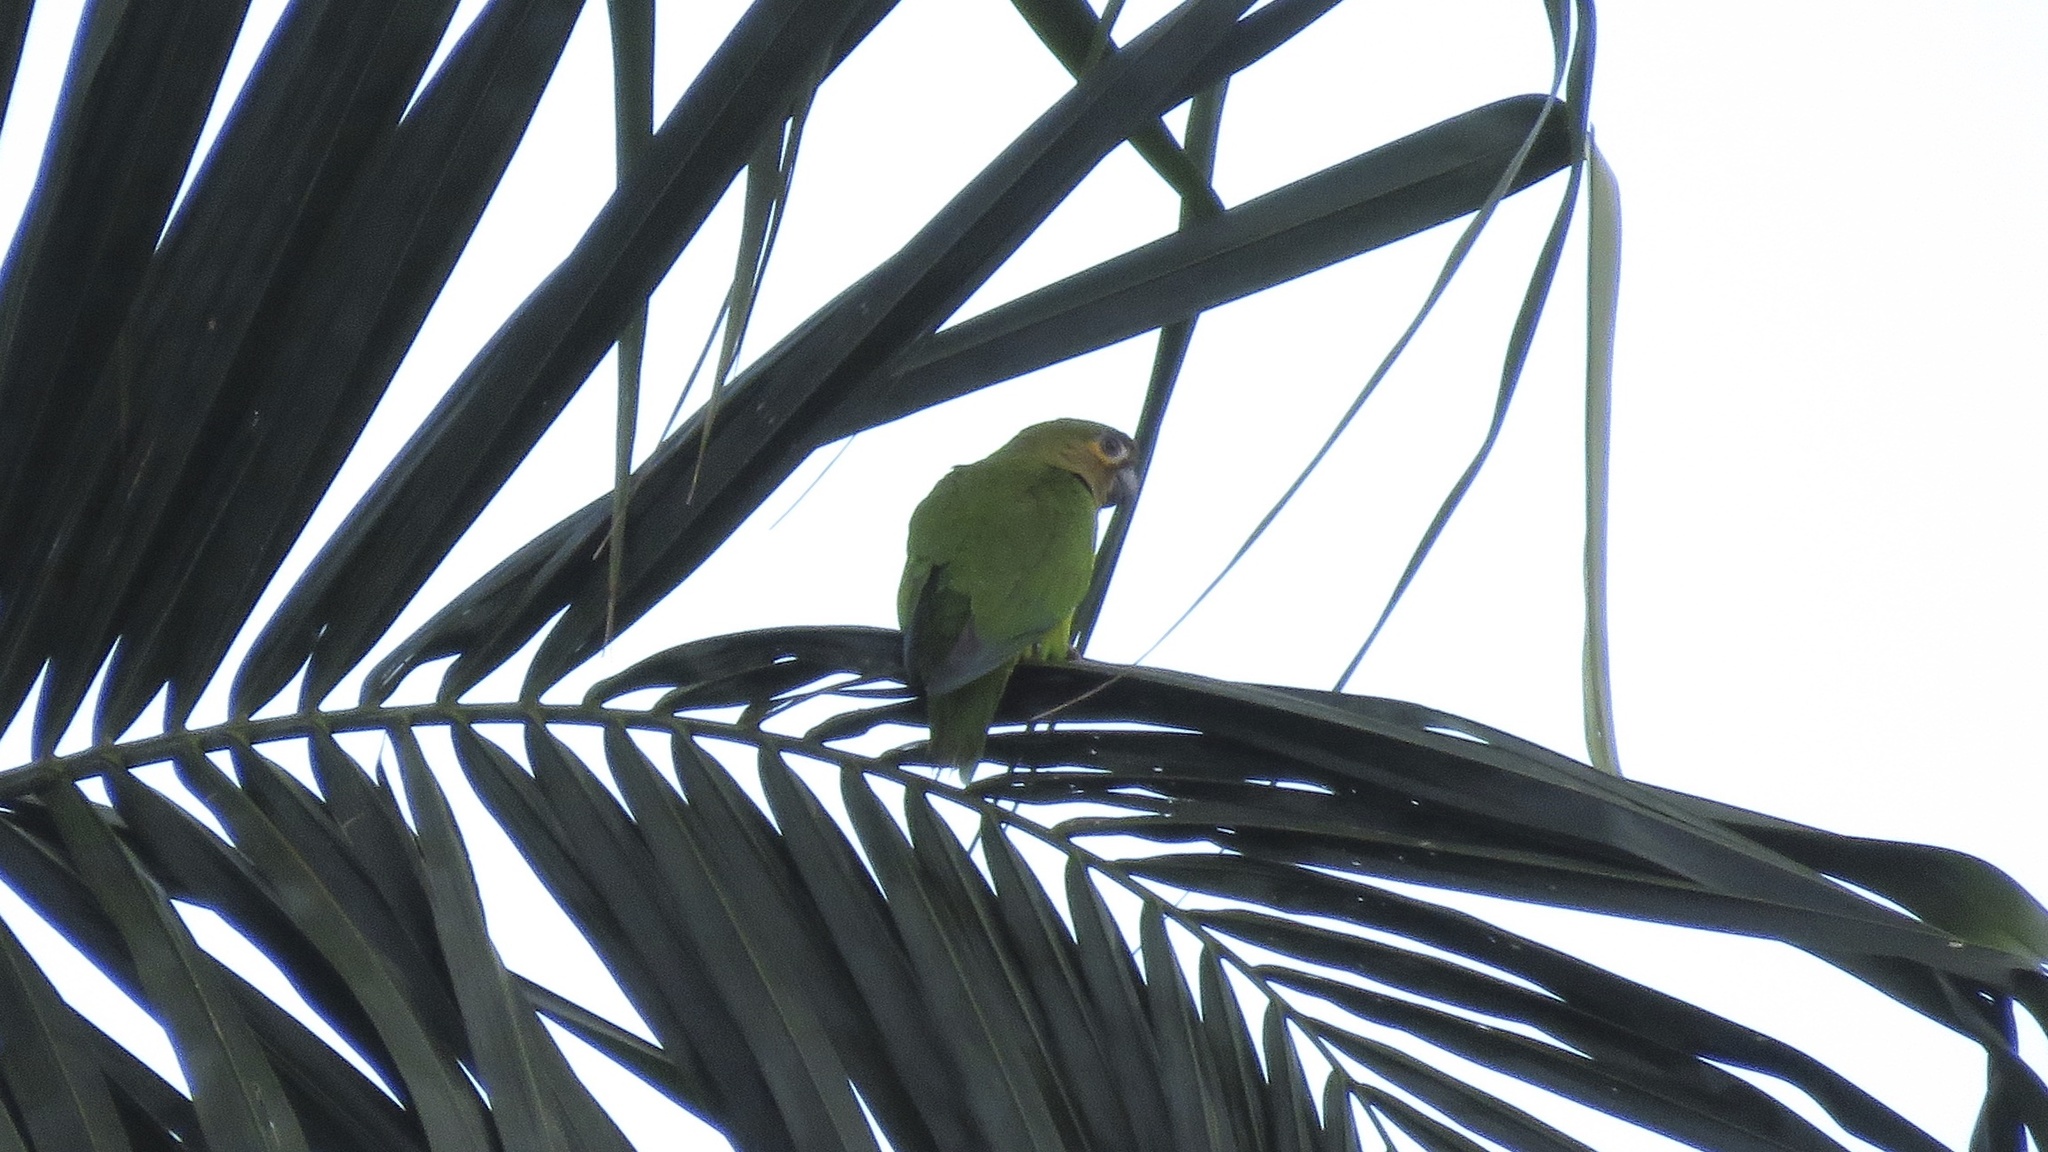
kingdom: Animalia
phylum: Chordata
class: Aves
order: Psittaciformes
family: Psittacidae
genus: Aratinga
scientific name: Aratinga pertinax
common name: Brown-throated parakeet
